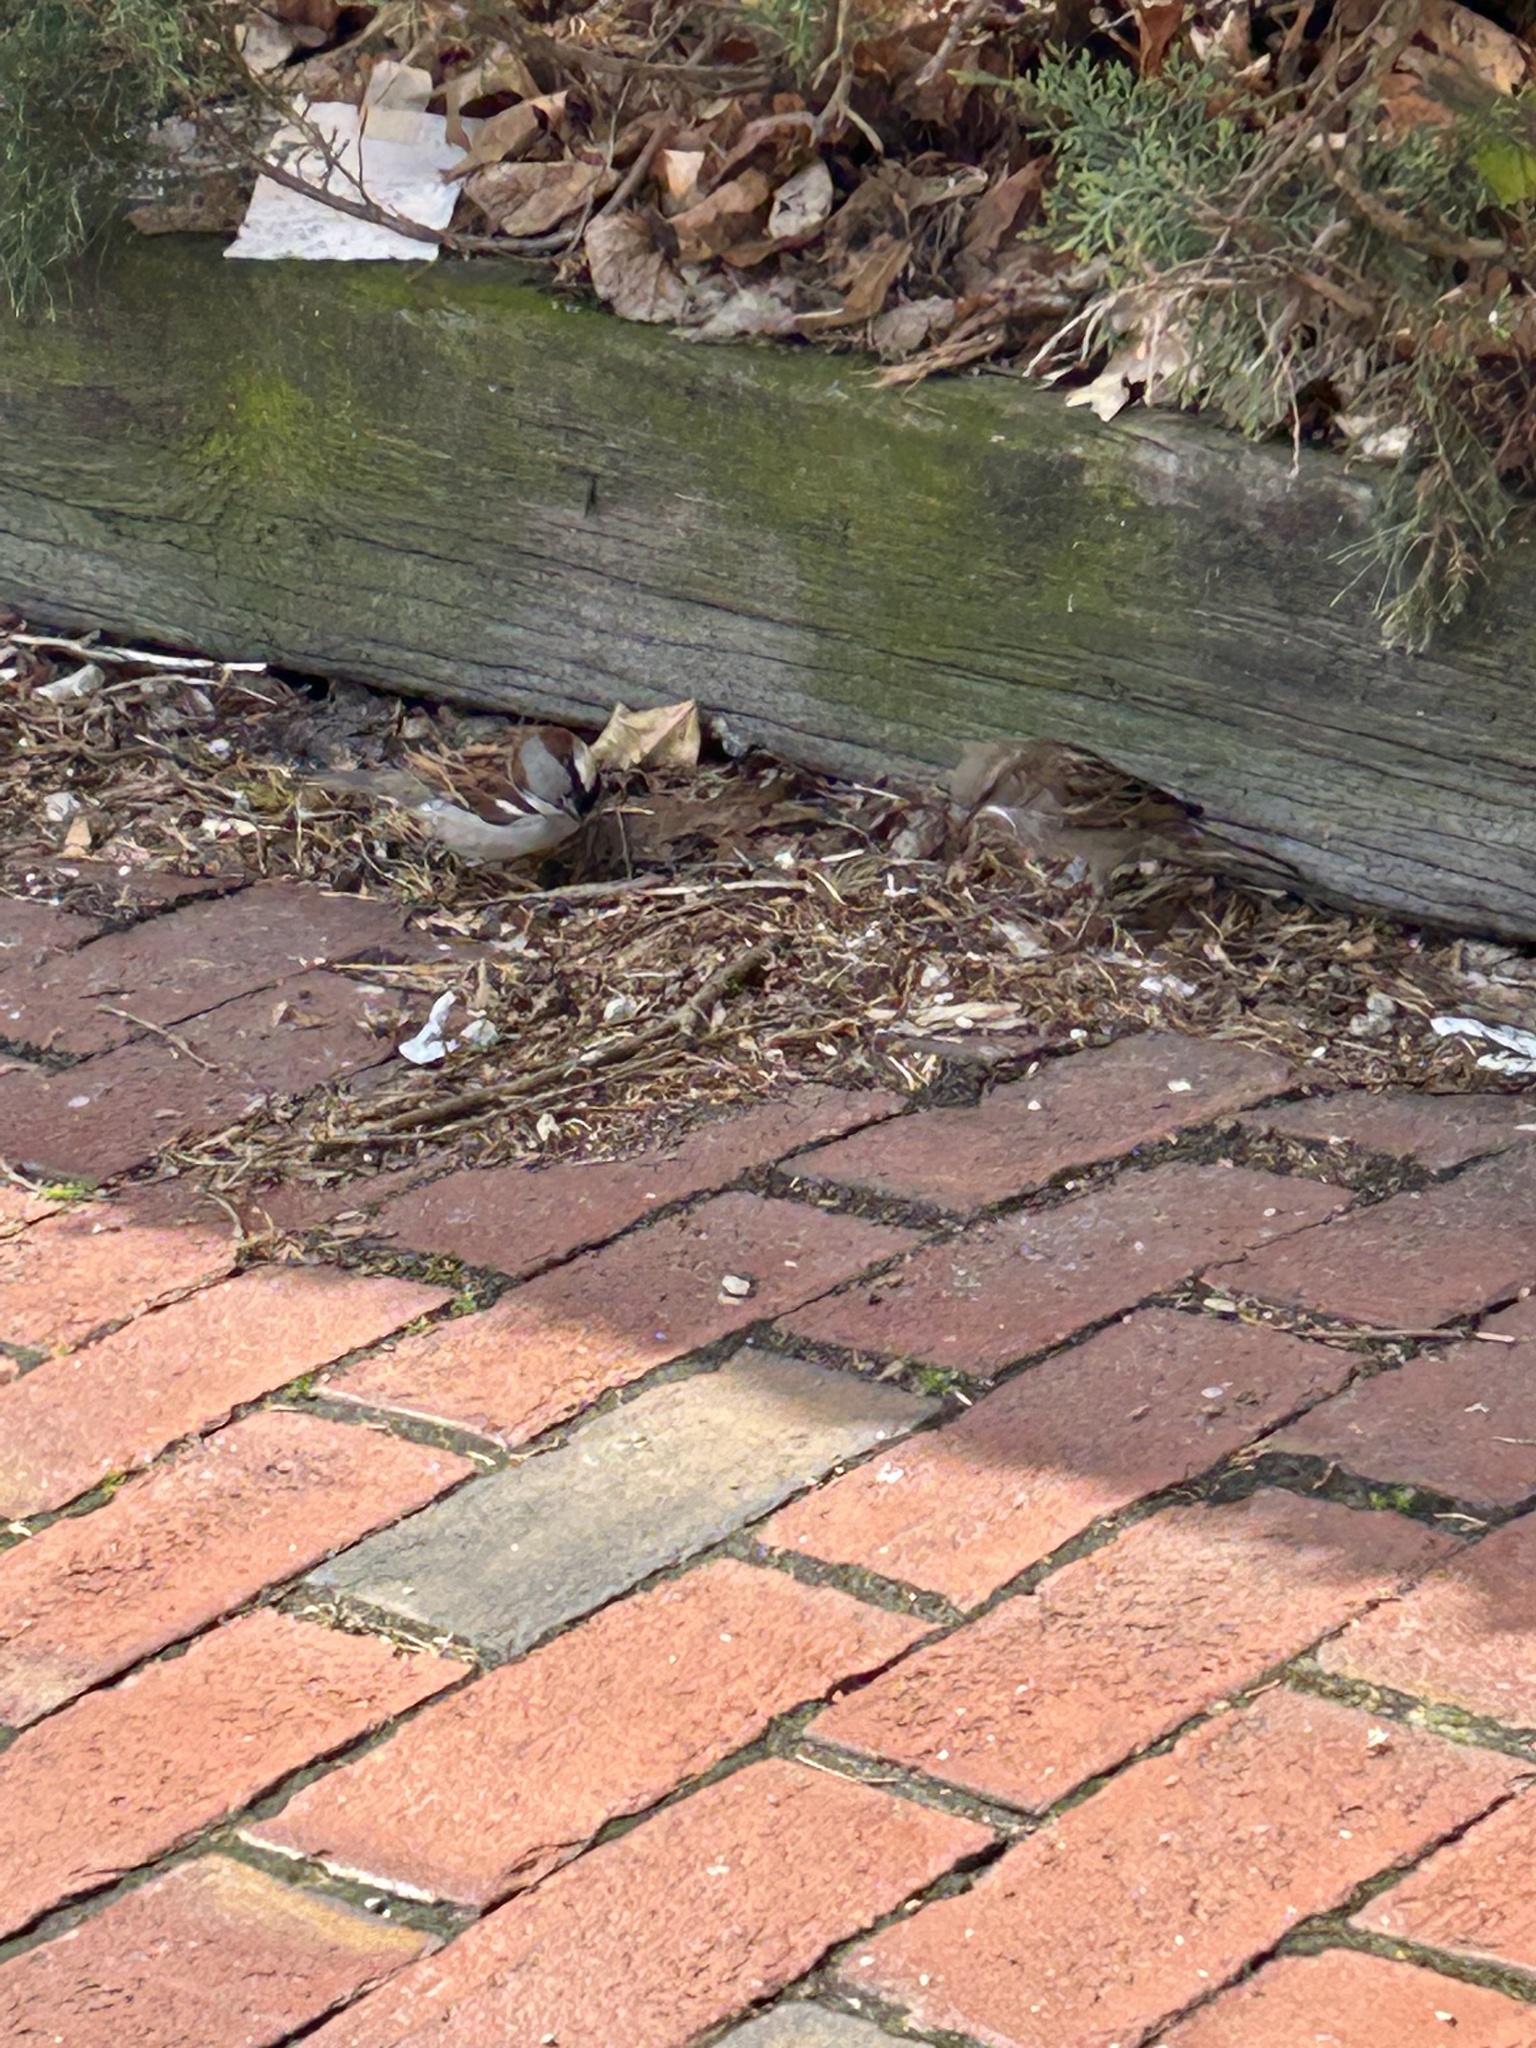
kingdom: Animalia
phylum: Chordata
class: Aves
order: Passeriformes
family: Passeridae
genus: Passer
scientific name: Passer domesticus
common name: House sparrow
